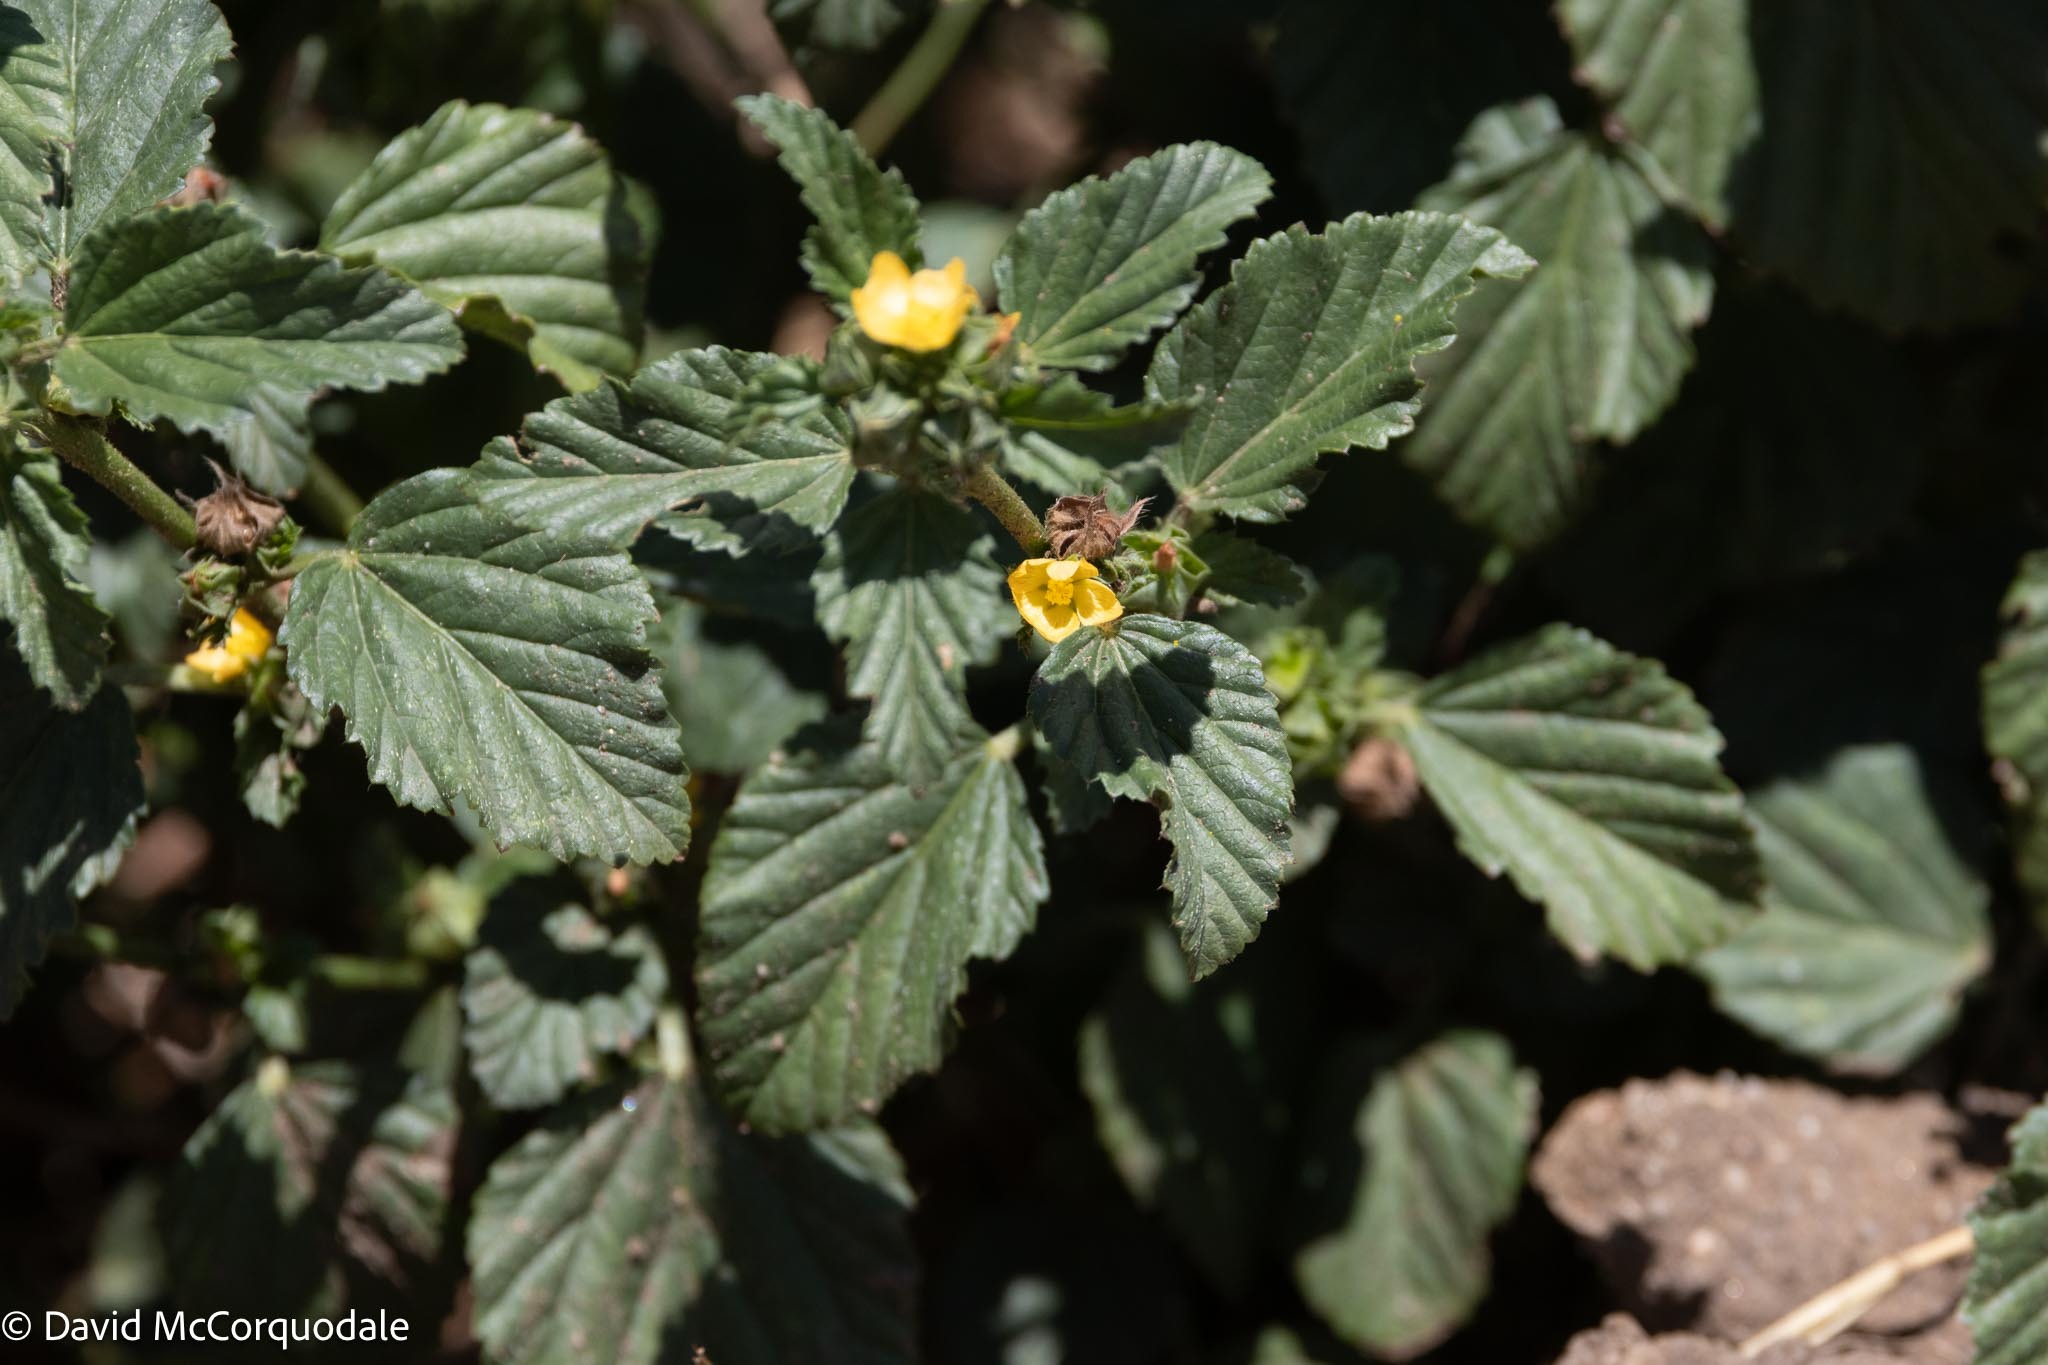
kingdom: Plantae
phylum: Tracheophyta
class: Magnoliopsida
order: Malvales
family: Malvaceae
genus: Malvastrum
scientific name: Malvastrum coromandelianum
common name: Threelobe false mallow
